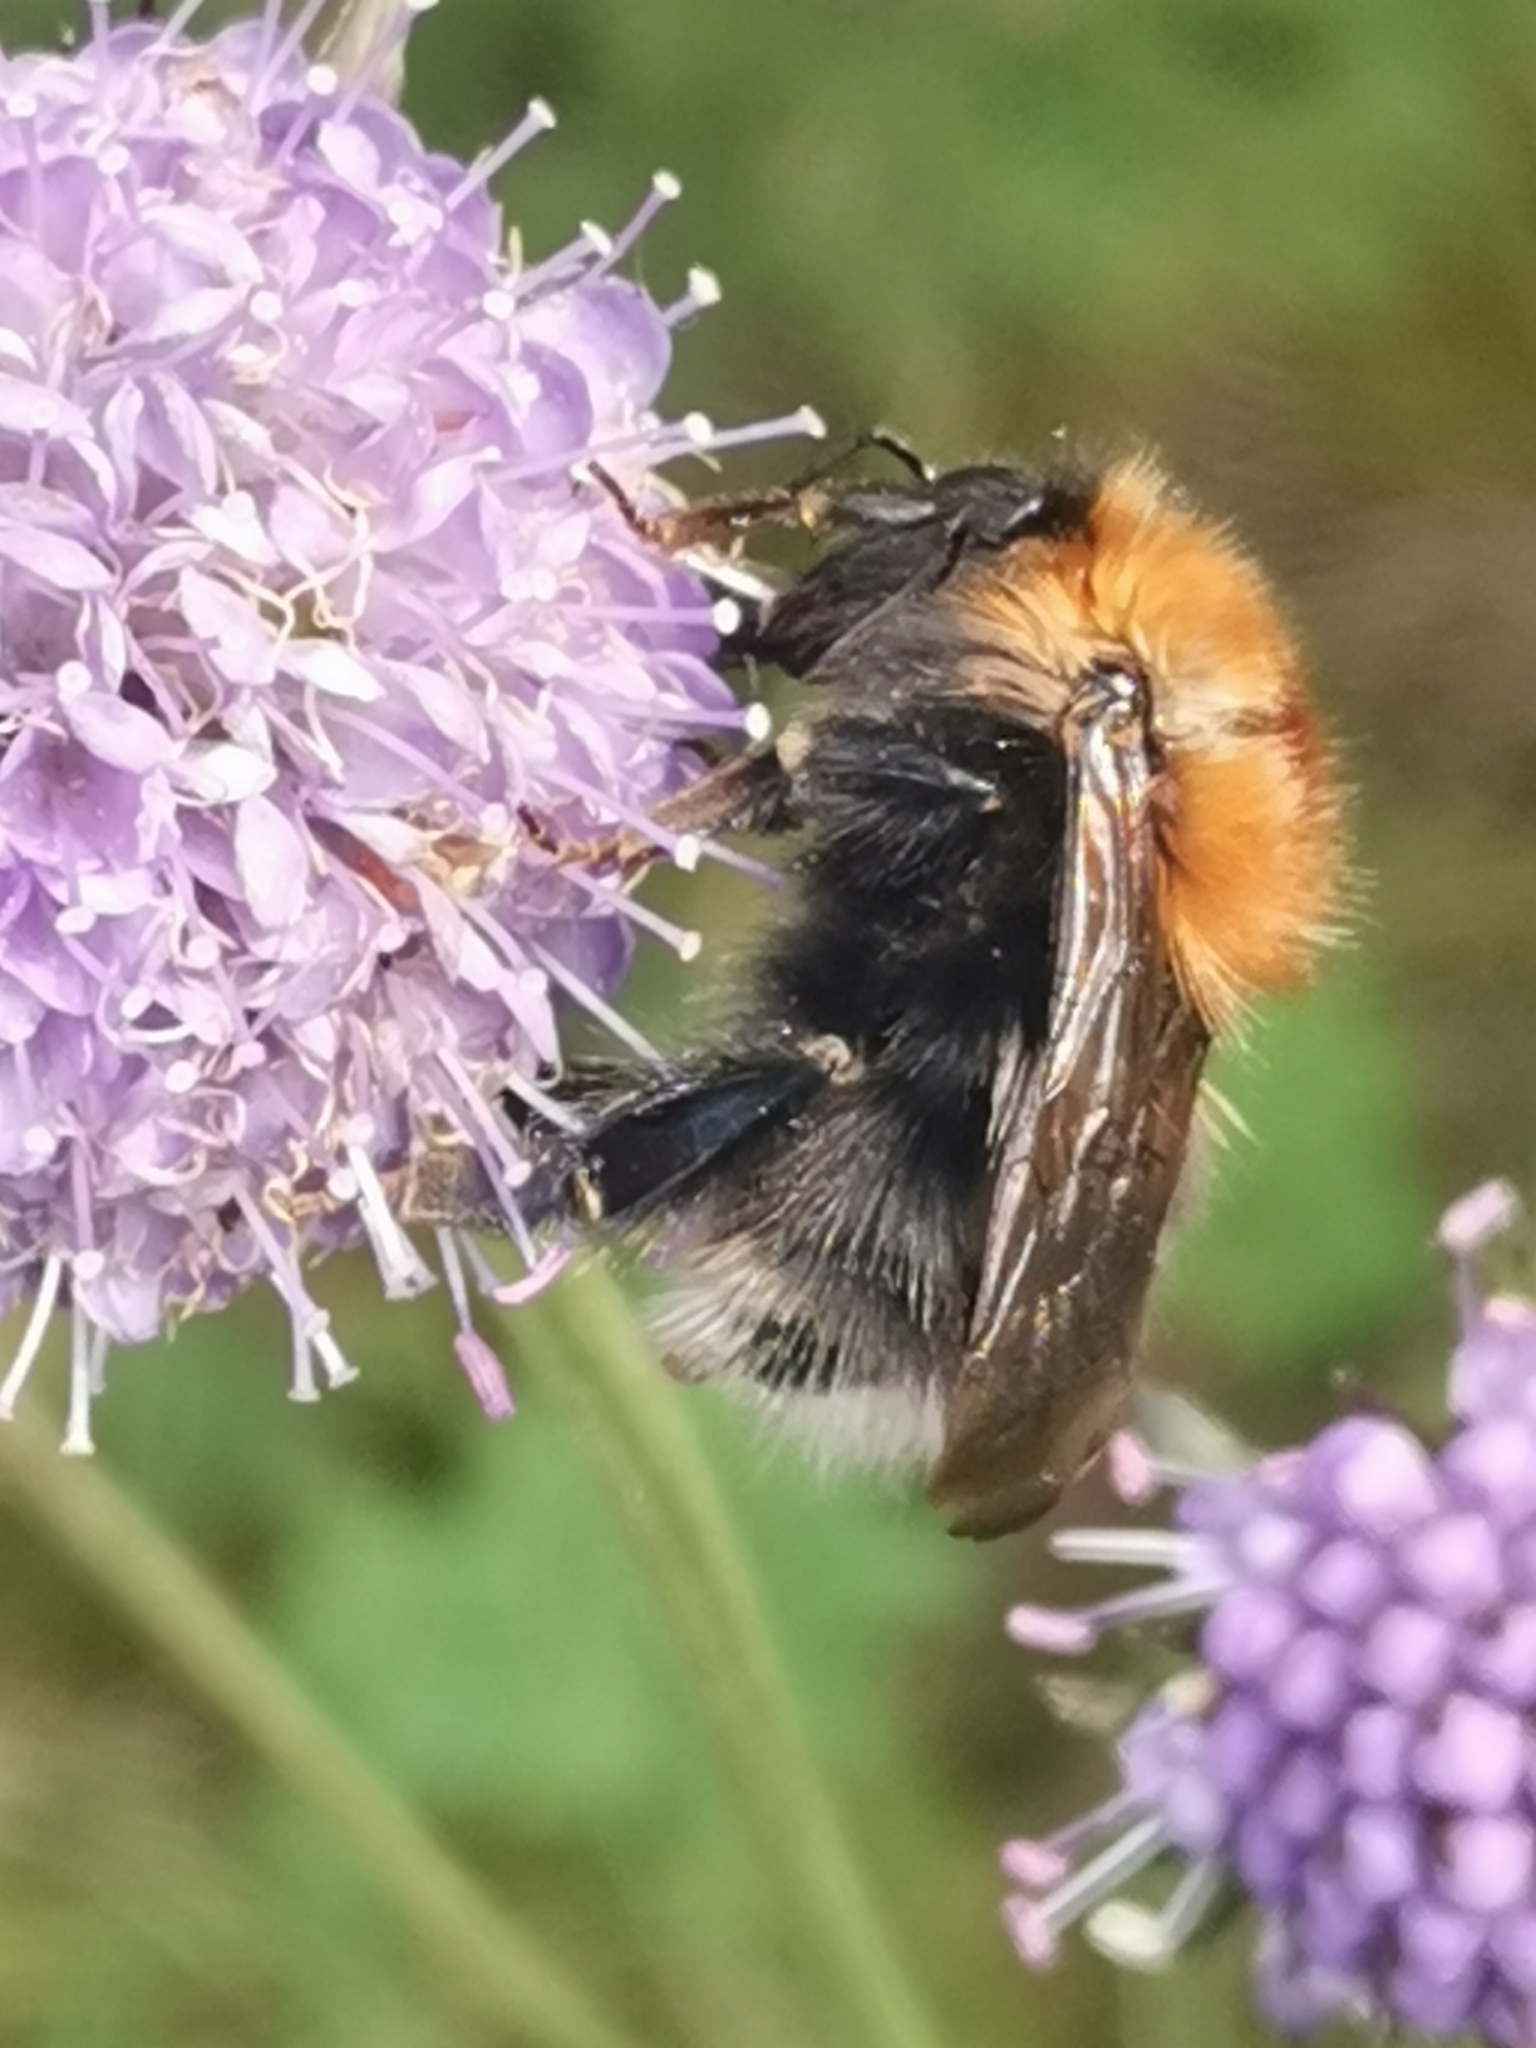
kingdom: Animalia
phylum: Arthropoda
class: Insecta
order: Hymenoptera
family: Apidae
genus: Bombus
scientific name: Bombus hypnorum
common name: New garden bumblebee
